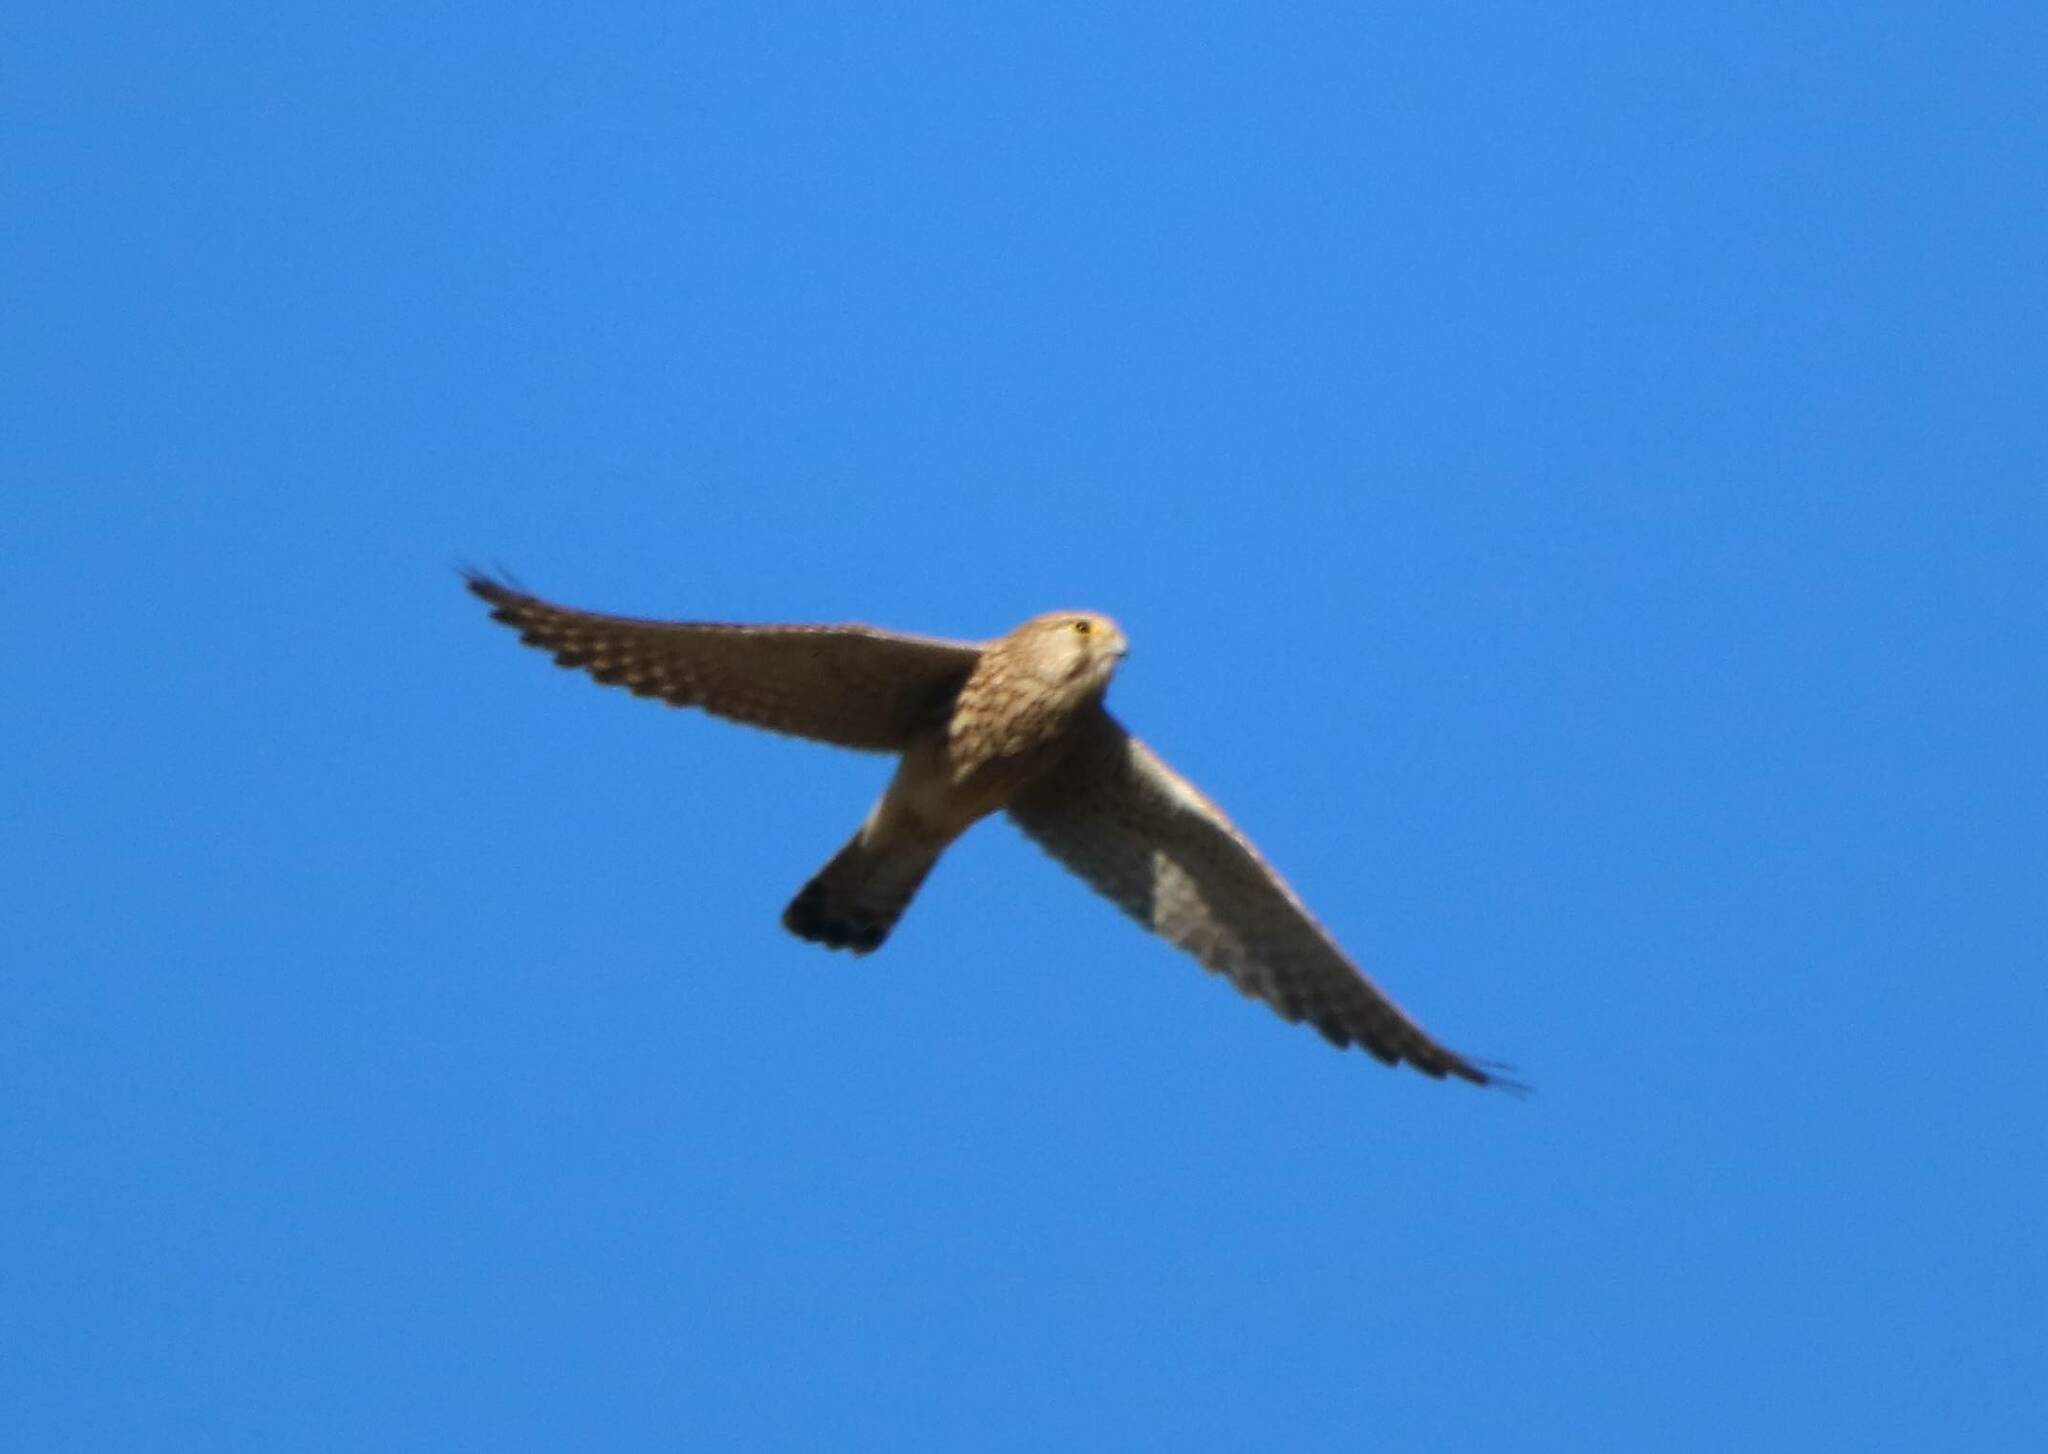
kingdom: Animalia
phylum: Chordata
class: Aves
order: Falconiformes
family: Falconidae
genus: Falco
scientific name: Falco tinnunculus
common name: Common kestrel
